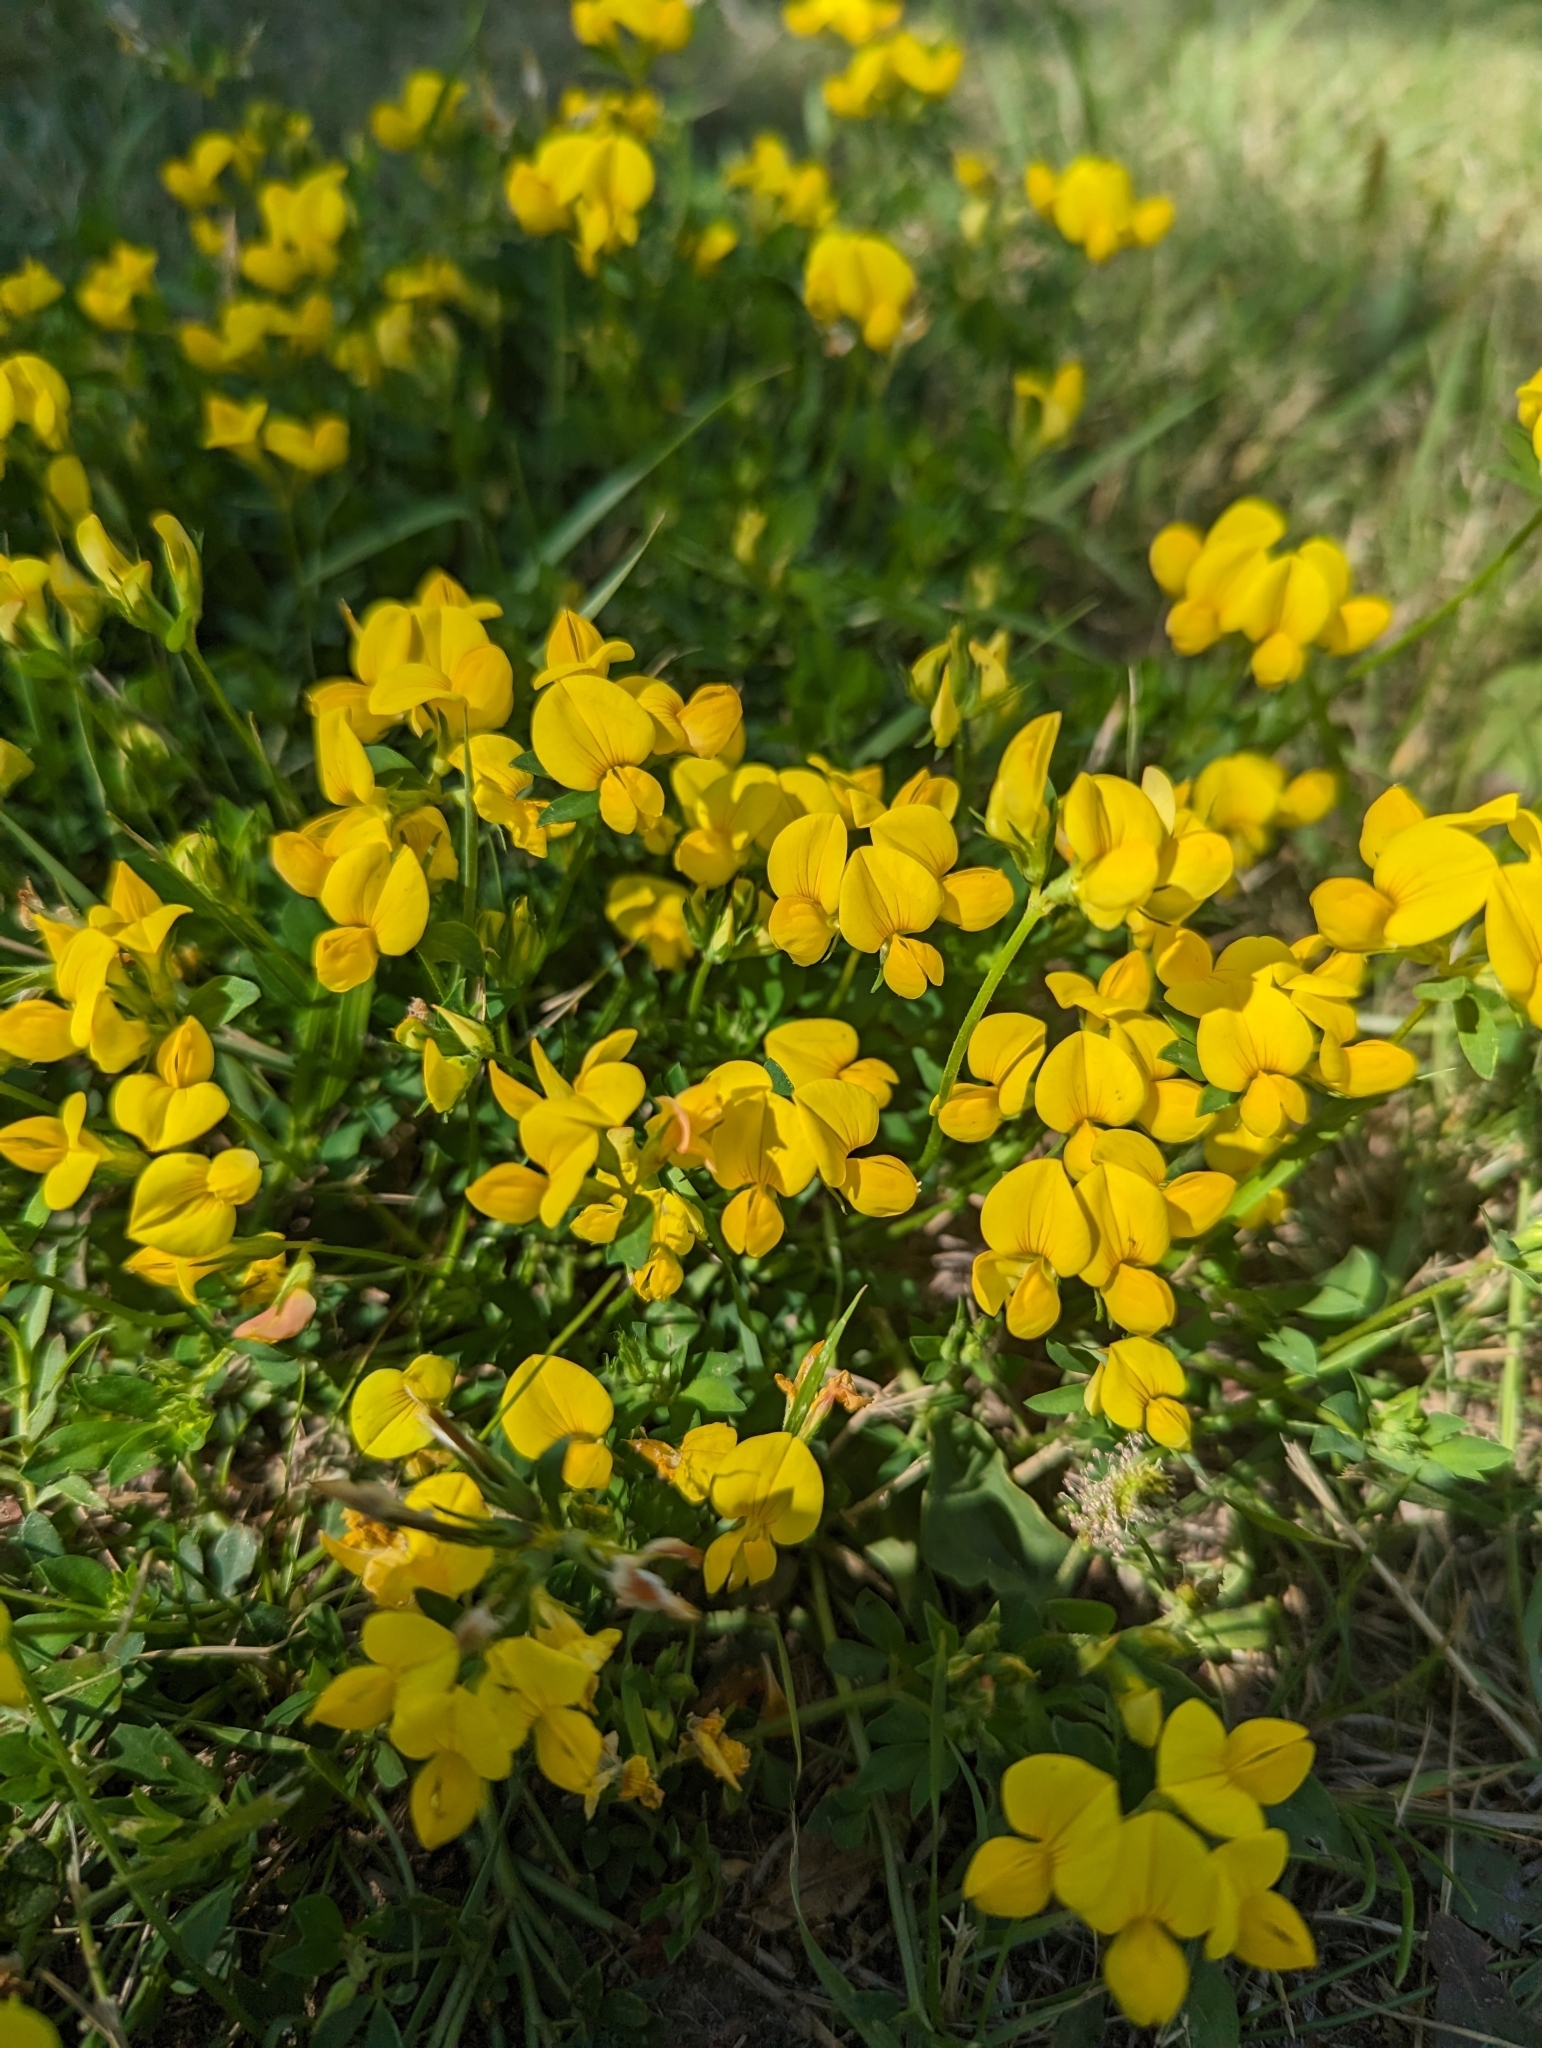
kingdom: Plantae
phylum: Tracheophyta
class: Magnoliopsida
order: Fabales
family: Fabaceae
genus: Lotus
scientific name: Lotus corniculatus
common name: Common bird's-foot-trefoil
